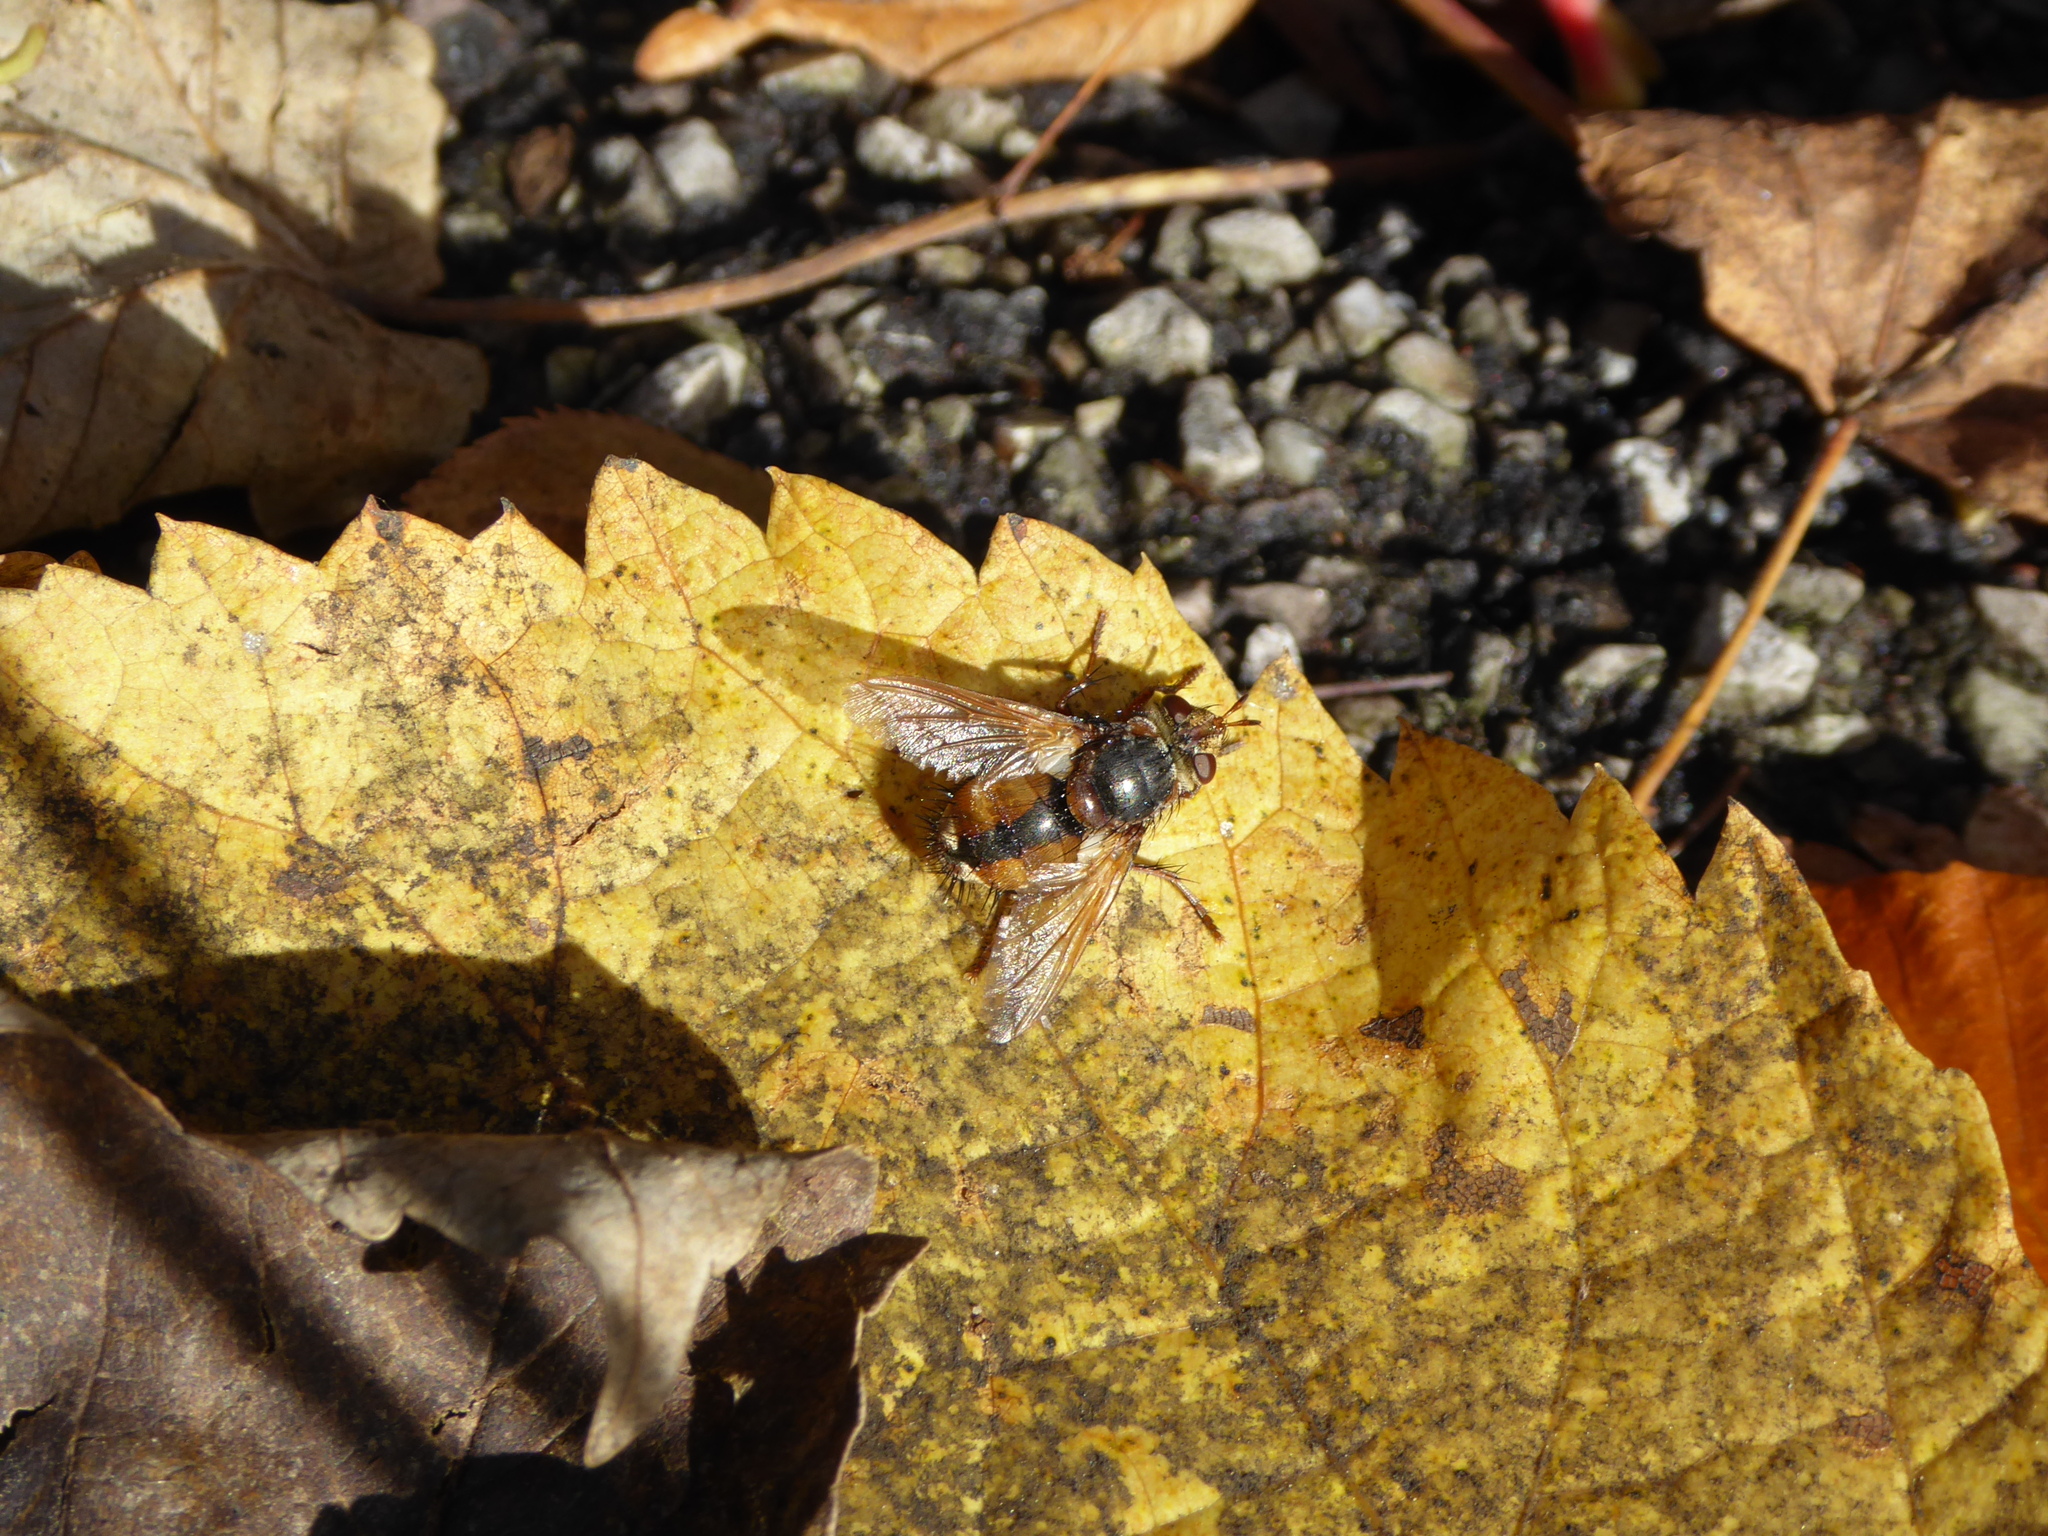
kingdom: Animalia
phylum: Arthropoda
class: Insecta
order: Diptera
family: Tachinidae
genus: Tachina
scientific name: Tachina fera
